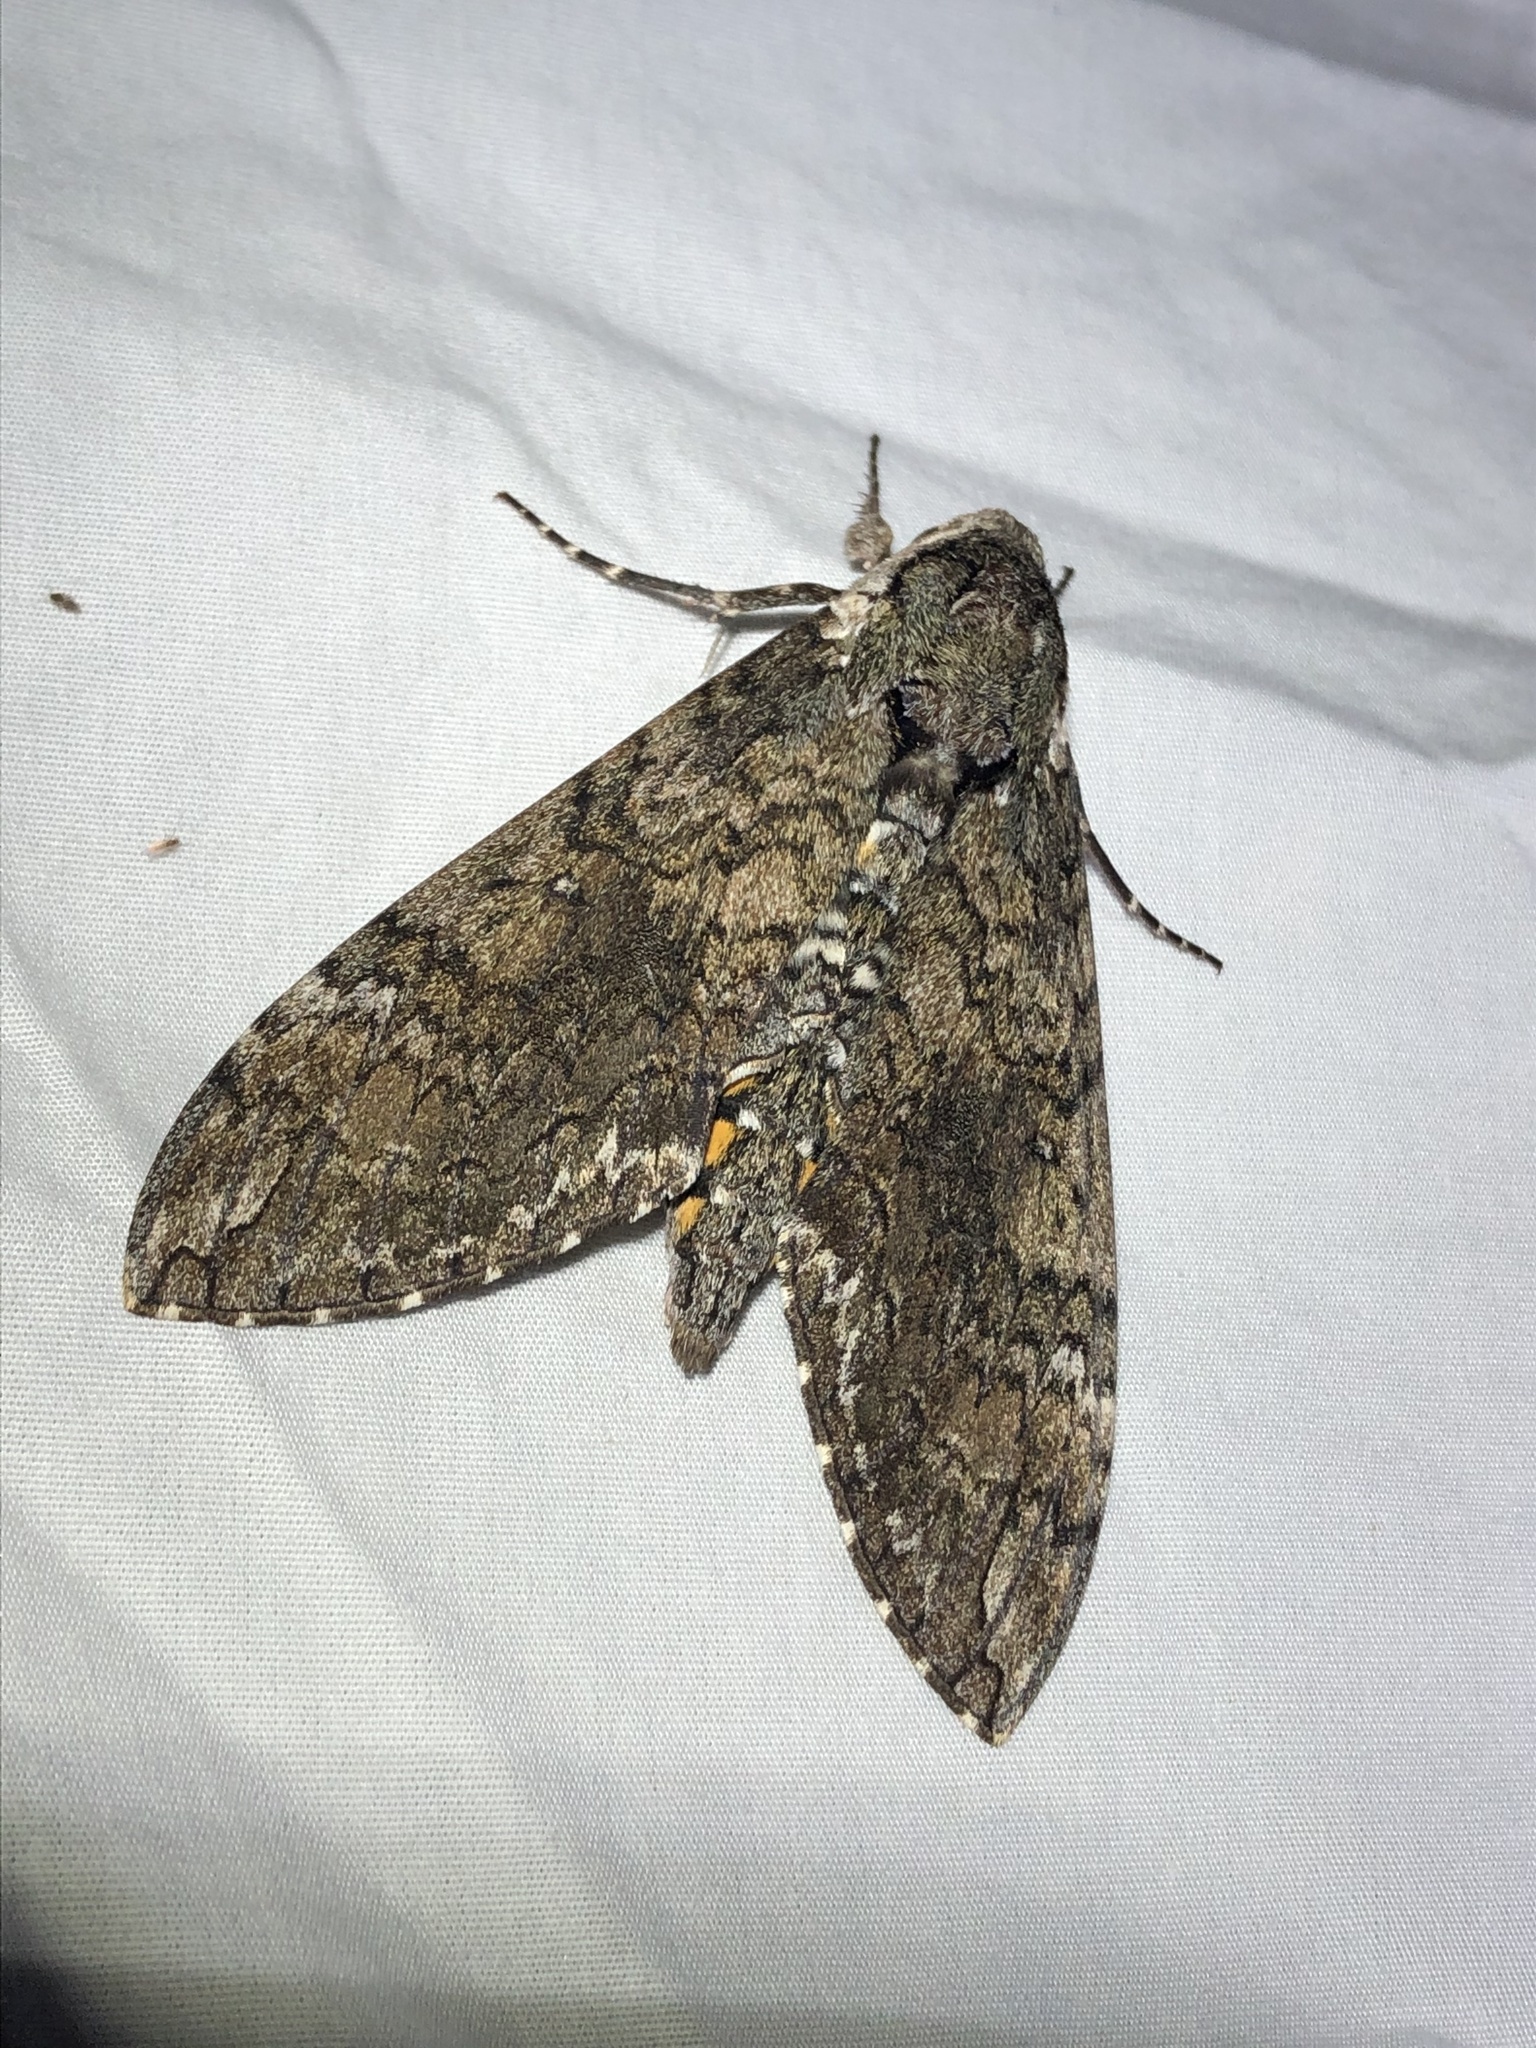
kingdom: Animalia
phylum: Arthropoda
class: Insecta
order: Lepidoptera
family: Sphingidae
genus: Manduca
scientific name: Manduca sexta
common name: Carolina sphinx
